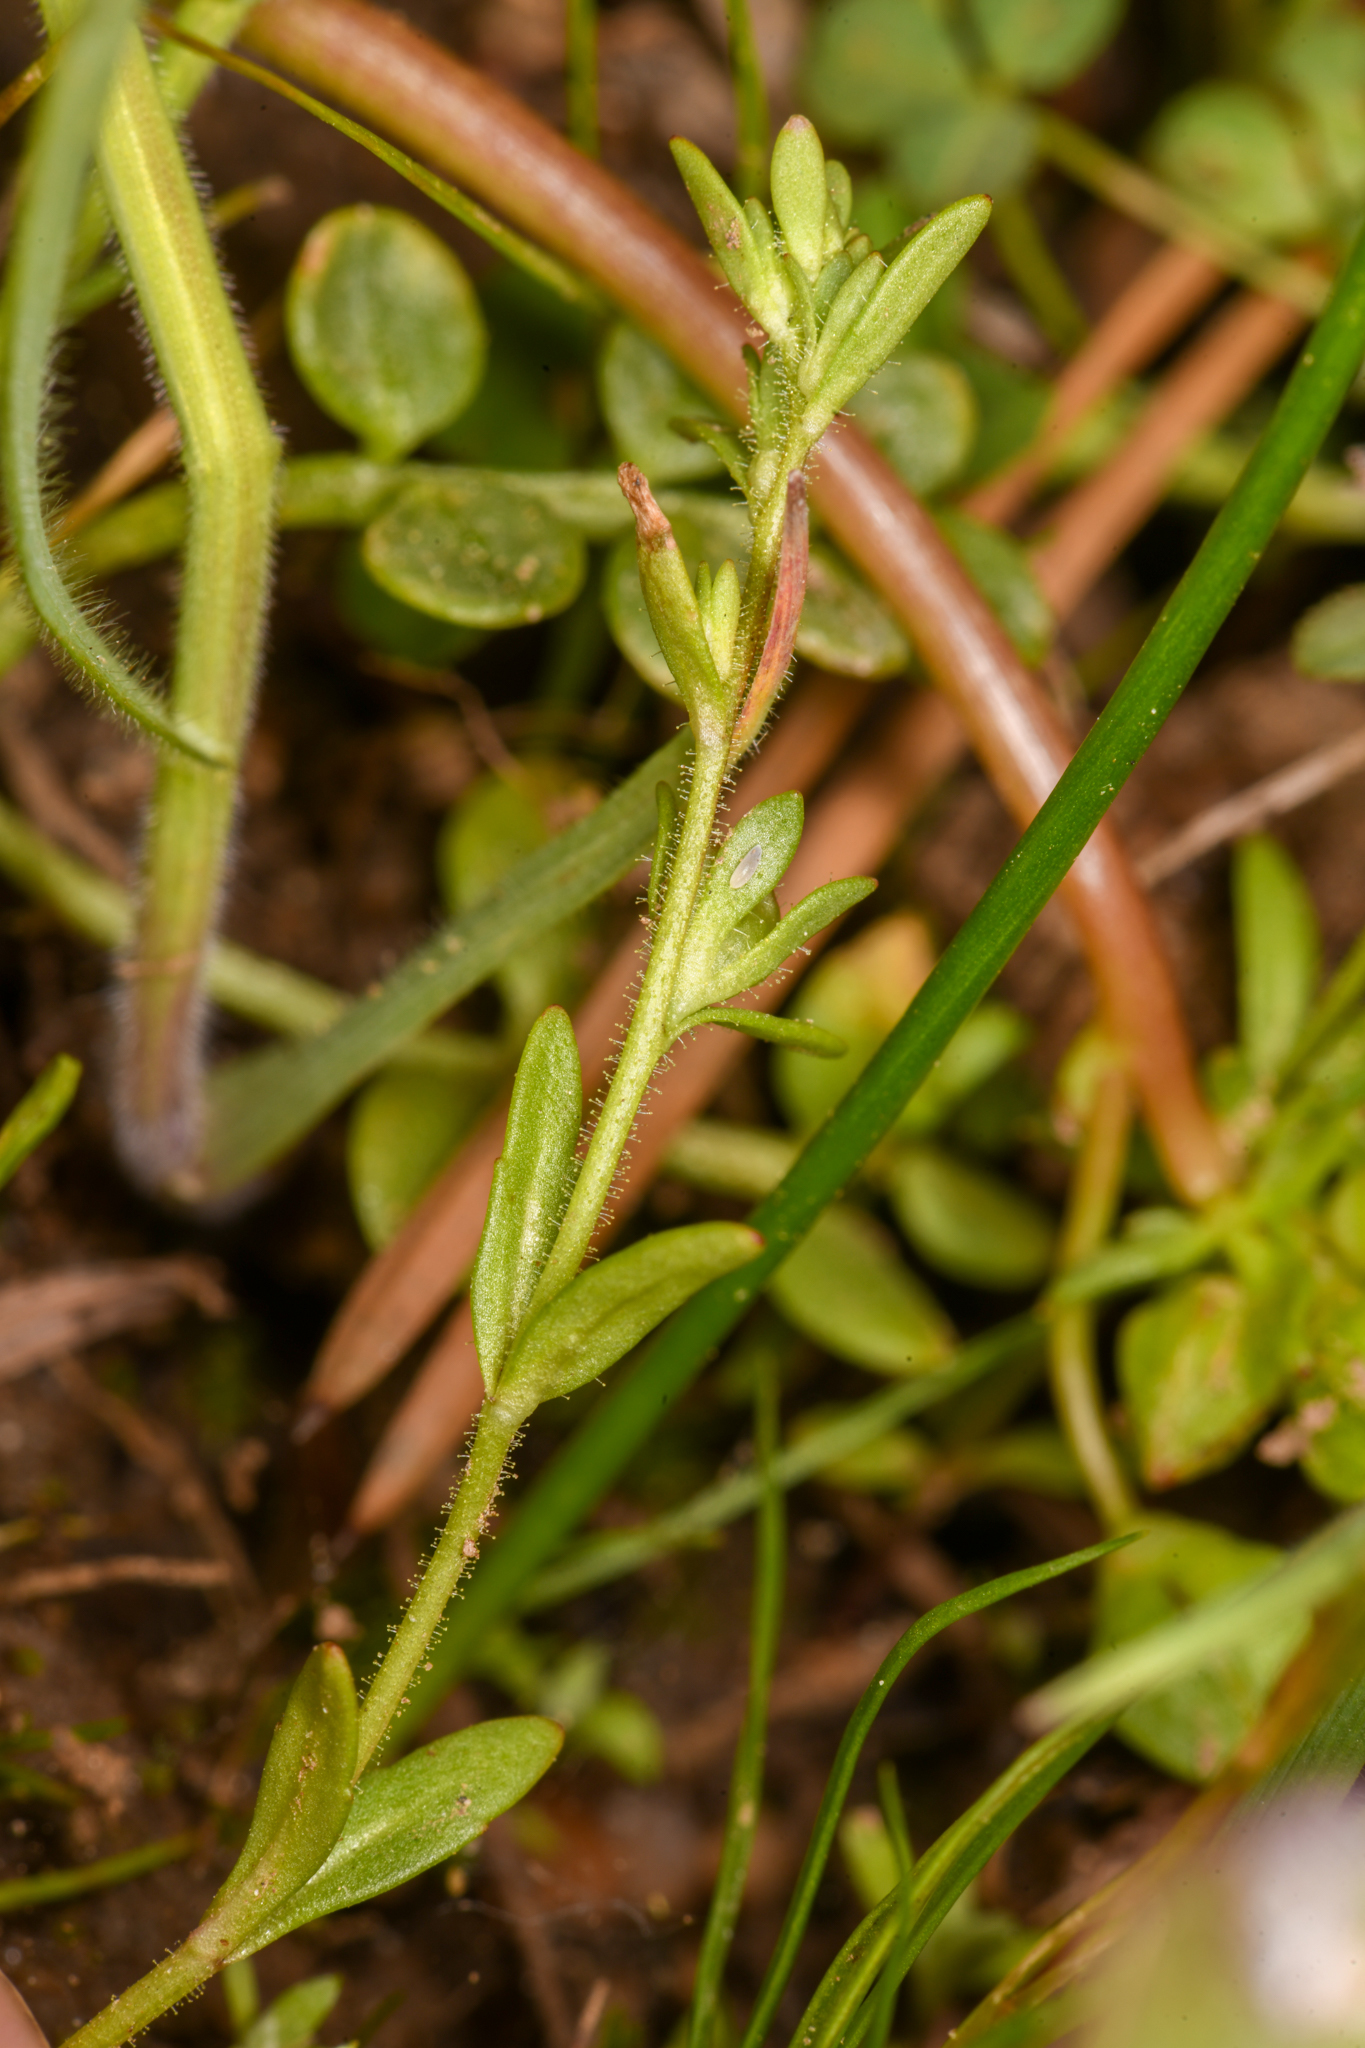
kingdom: Plantae
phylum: Tracheophyta
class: Magnoliopsida
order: Lamiales
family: Plantaginaceae
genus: Veronica
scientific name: Veronica peregrina
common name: Neckweed
